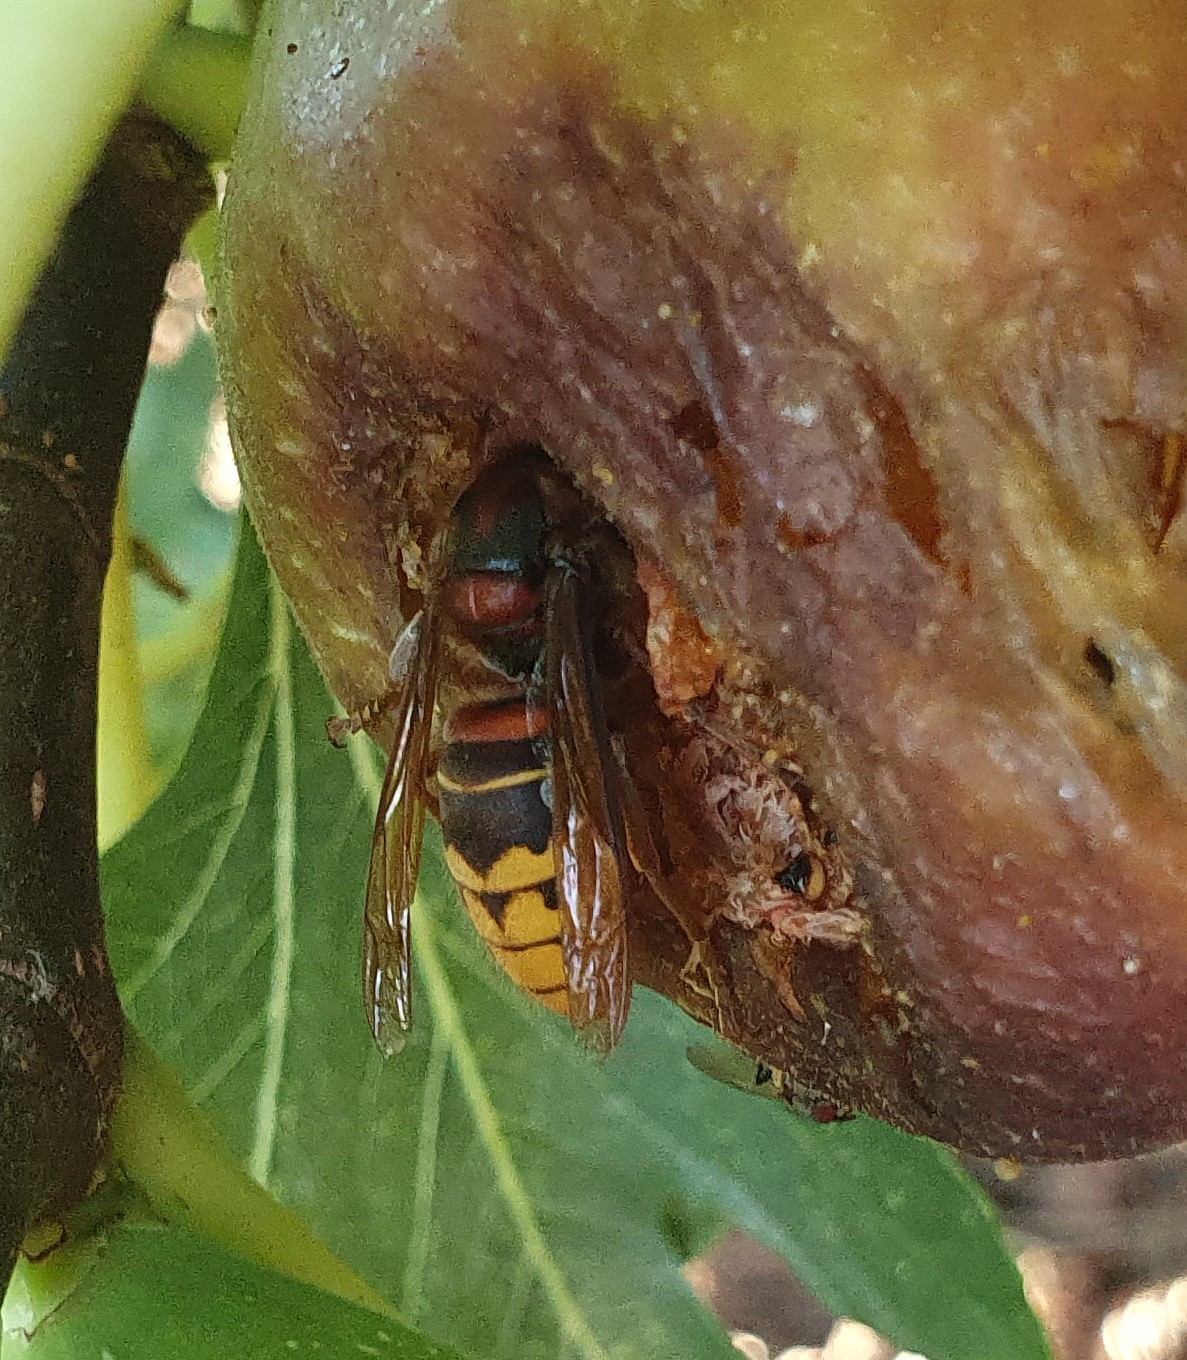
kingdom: Animalia
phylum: Arthropoda
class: Insecta
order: Hymenoptera
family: Vespidae
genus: Vespa
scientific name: Vespa crabro
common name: Hornet
